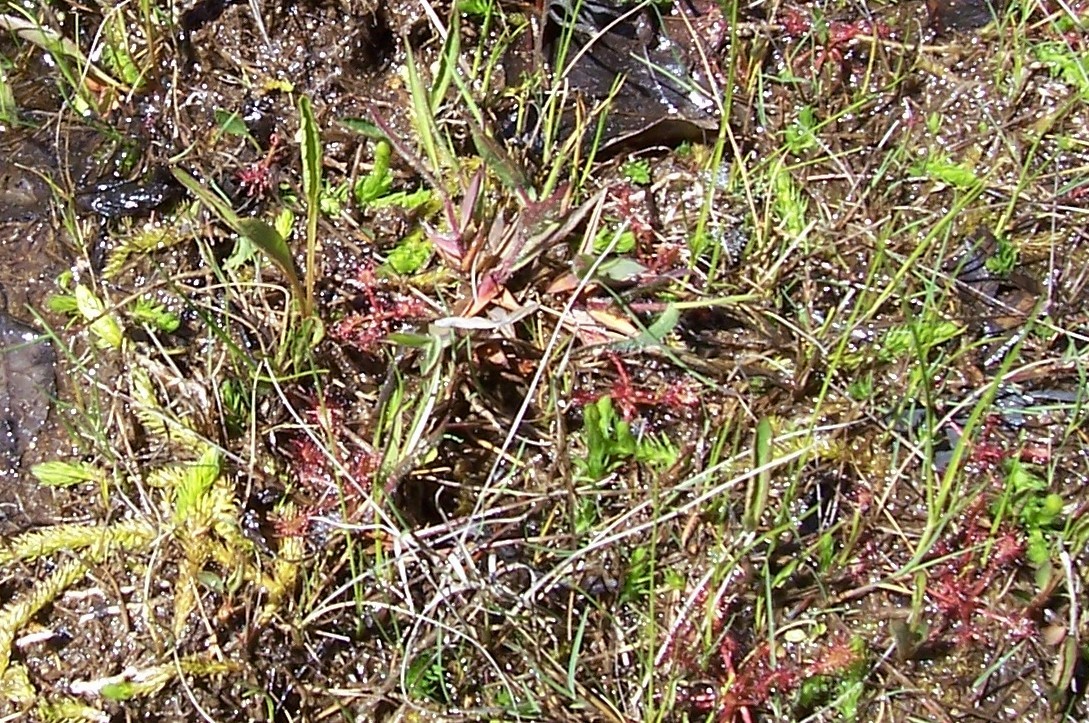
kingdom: Plantae
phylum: Tracheophyta
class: Magnoliopsida
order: Caryophyllales
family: Droseraceae
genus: Drosera
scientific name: Drosera intermedia
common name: Oblong-leaved sundew
